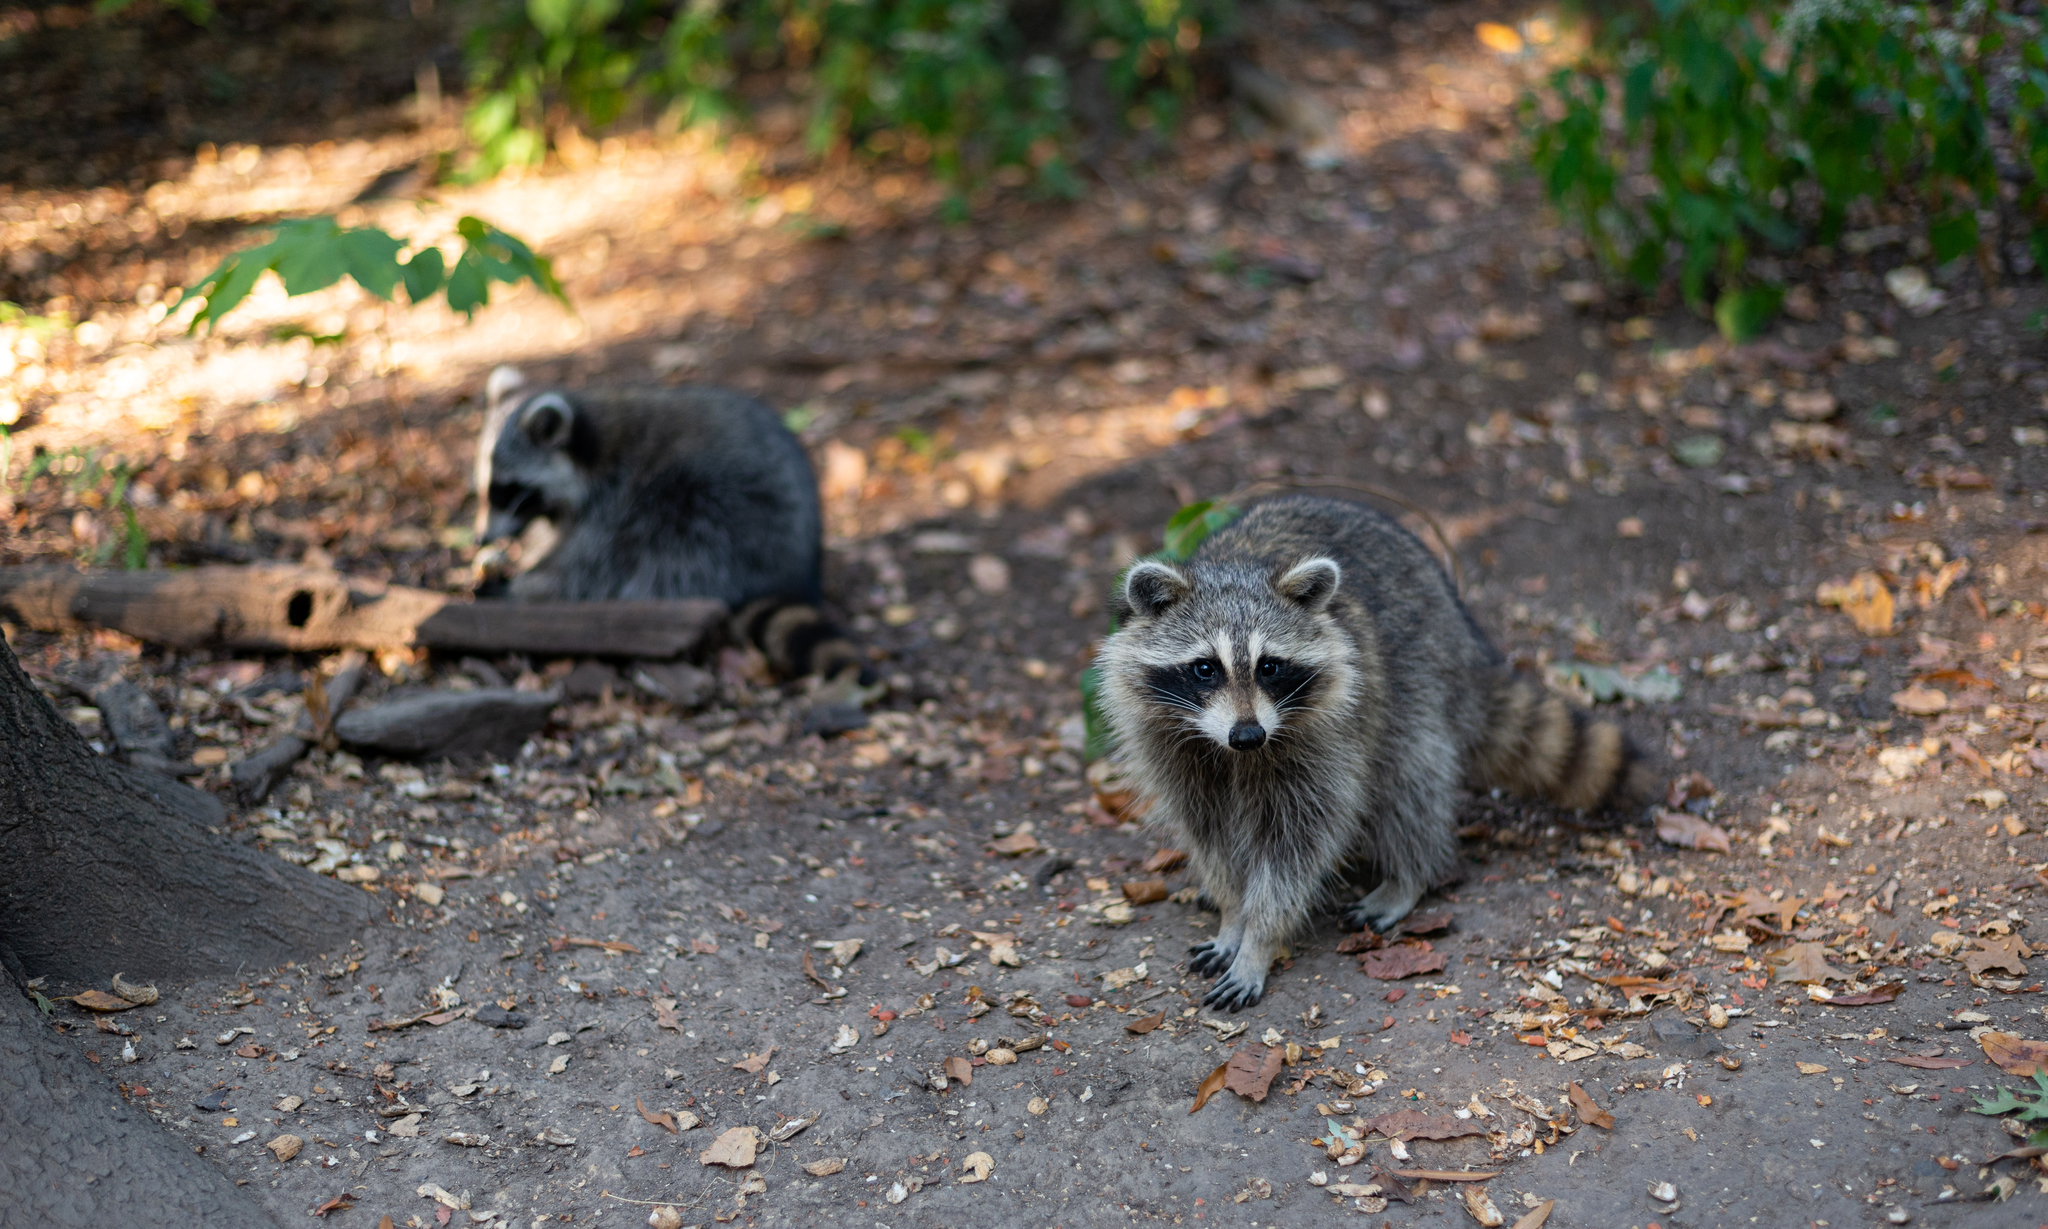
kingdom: Animalia
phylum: Chordata
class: Mammalia
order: Carnivora
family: Procyonidae
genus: Procyon
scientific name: Procyon lotor
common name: Raccoon
